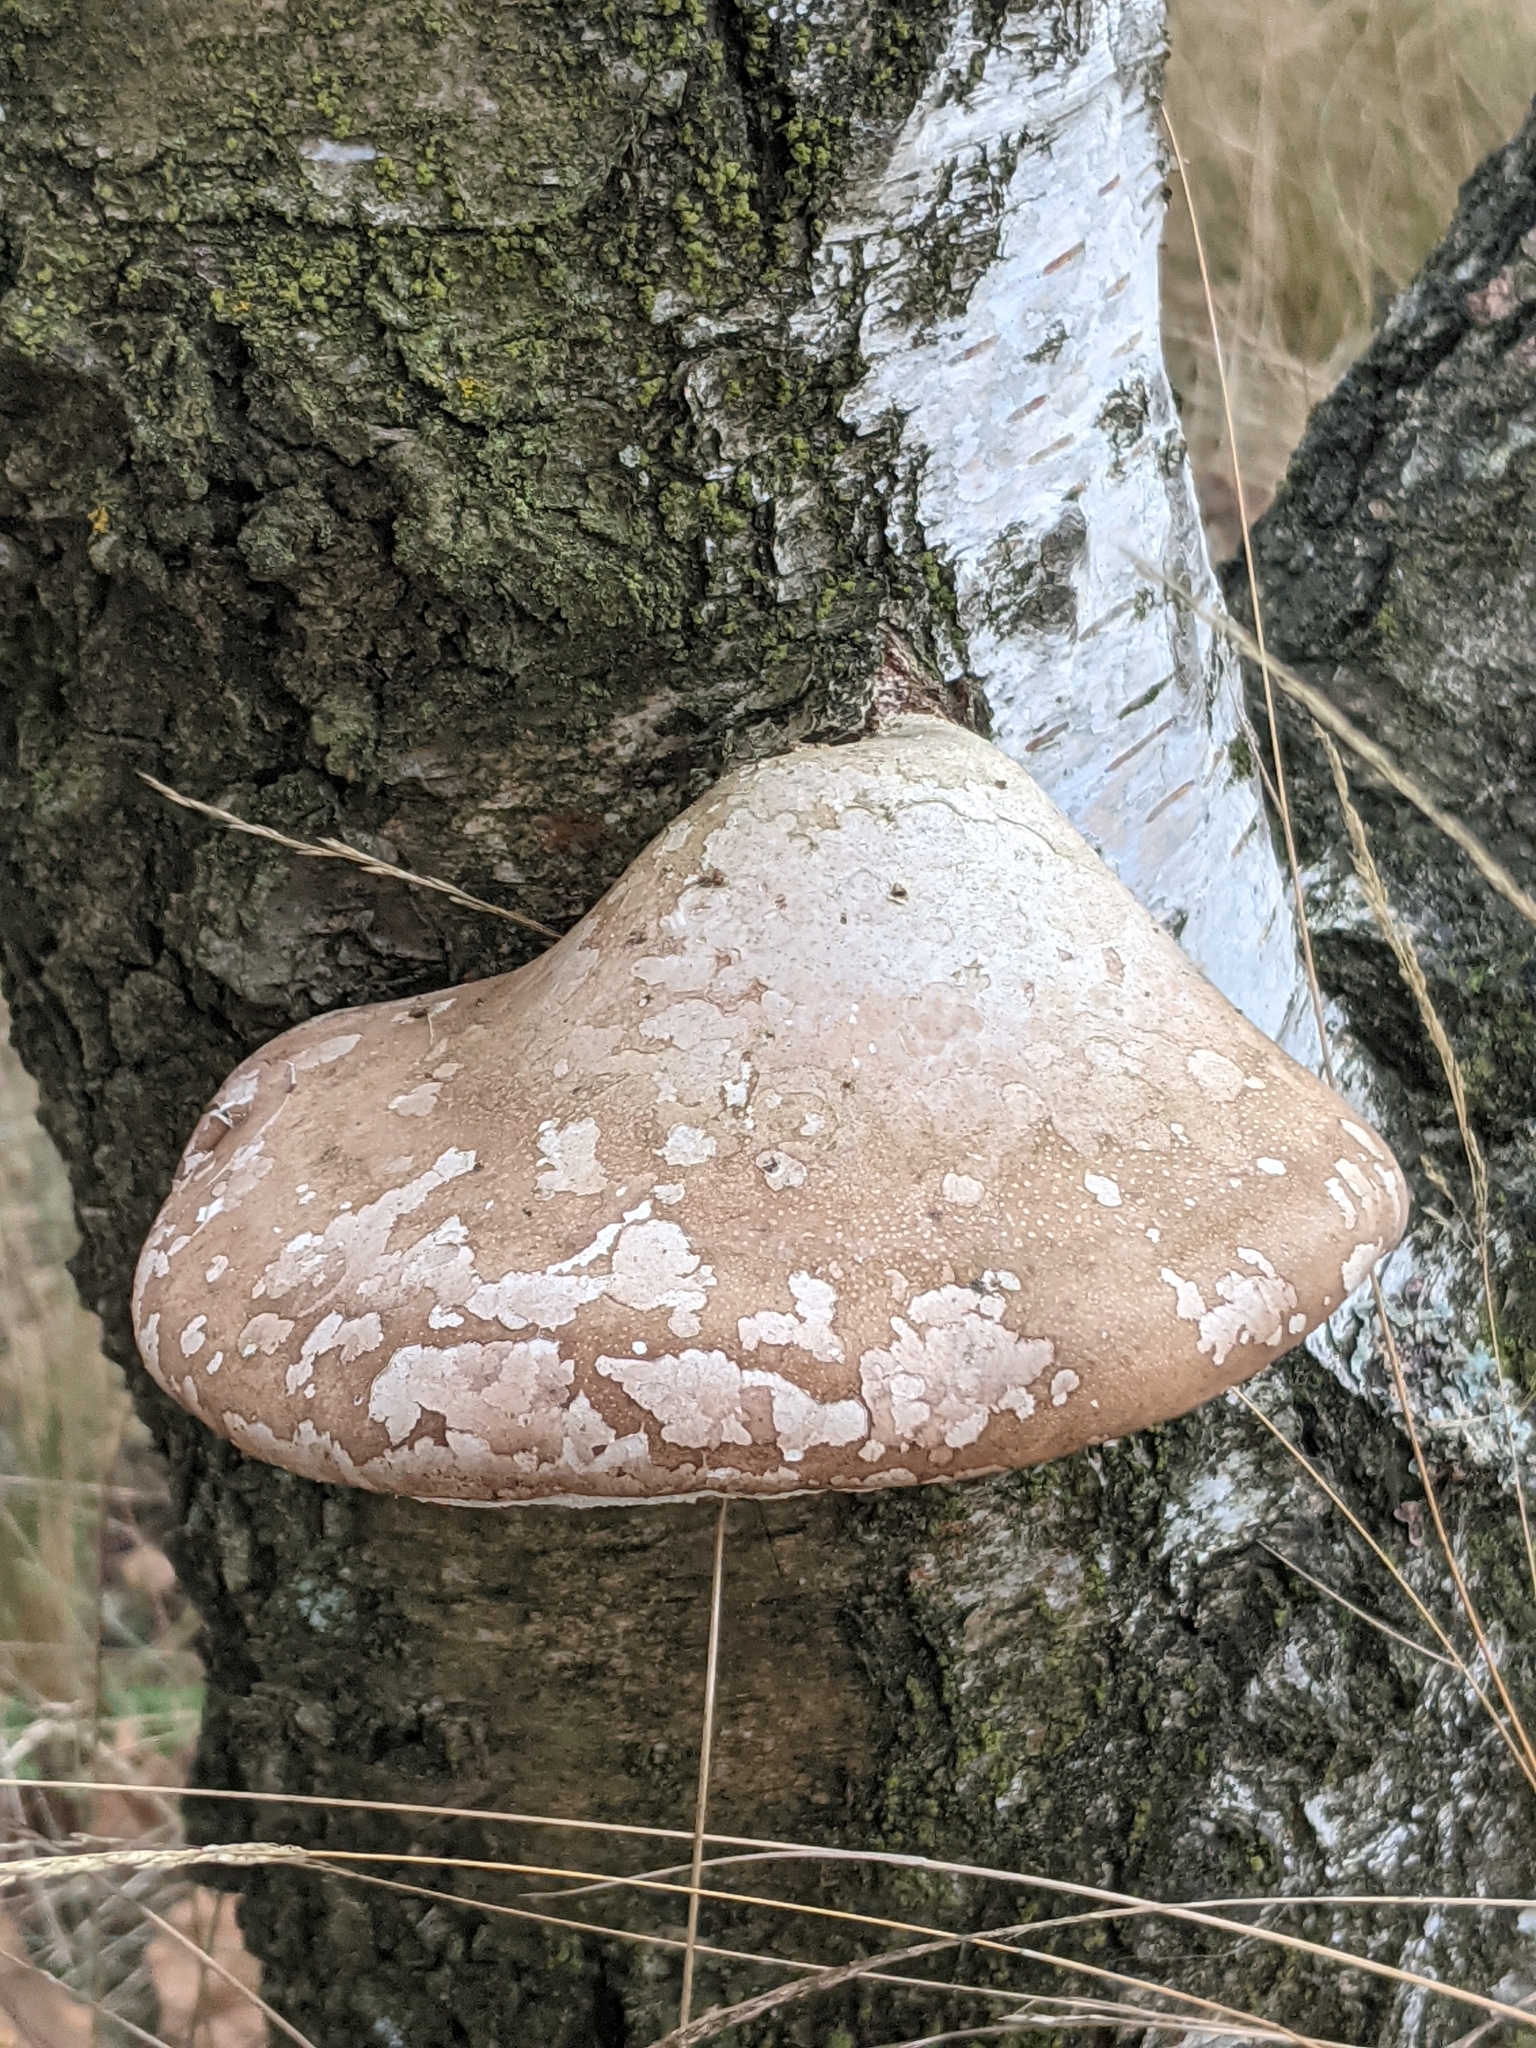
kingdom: Fungi
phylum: Basidiomycota
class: Agaricomycetes
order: Polyporales
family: Fomitopsidaceae
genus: Fomitopsis
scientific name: Fomitopsis betulina
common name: Birch polypore
